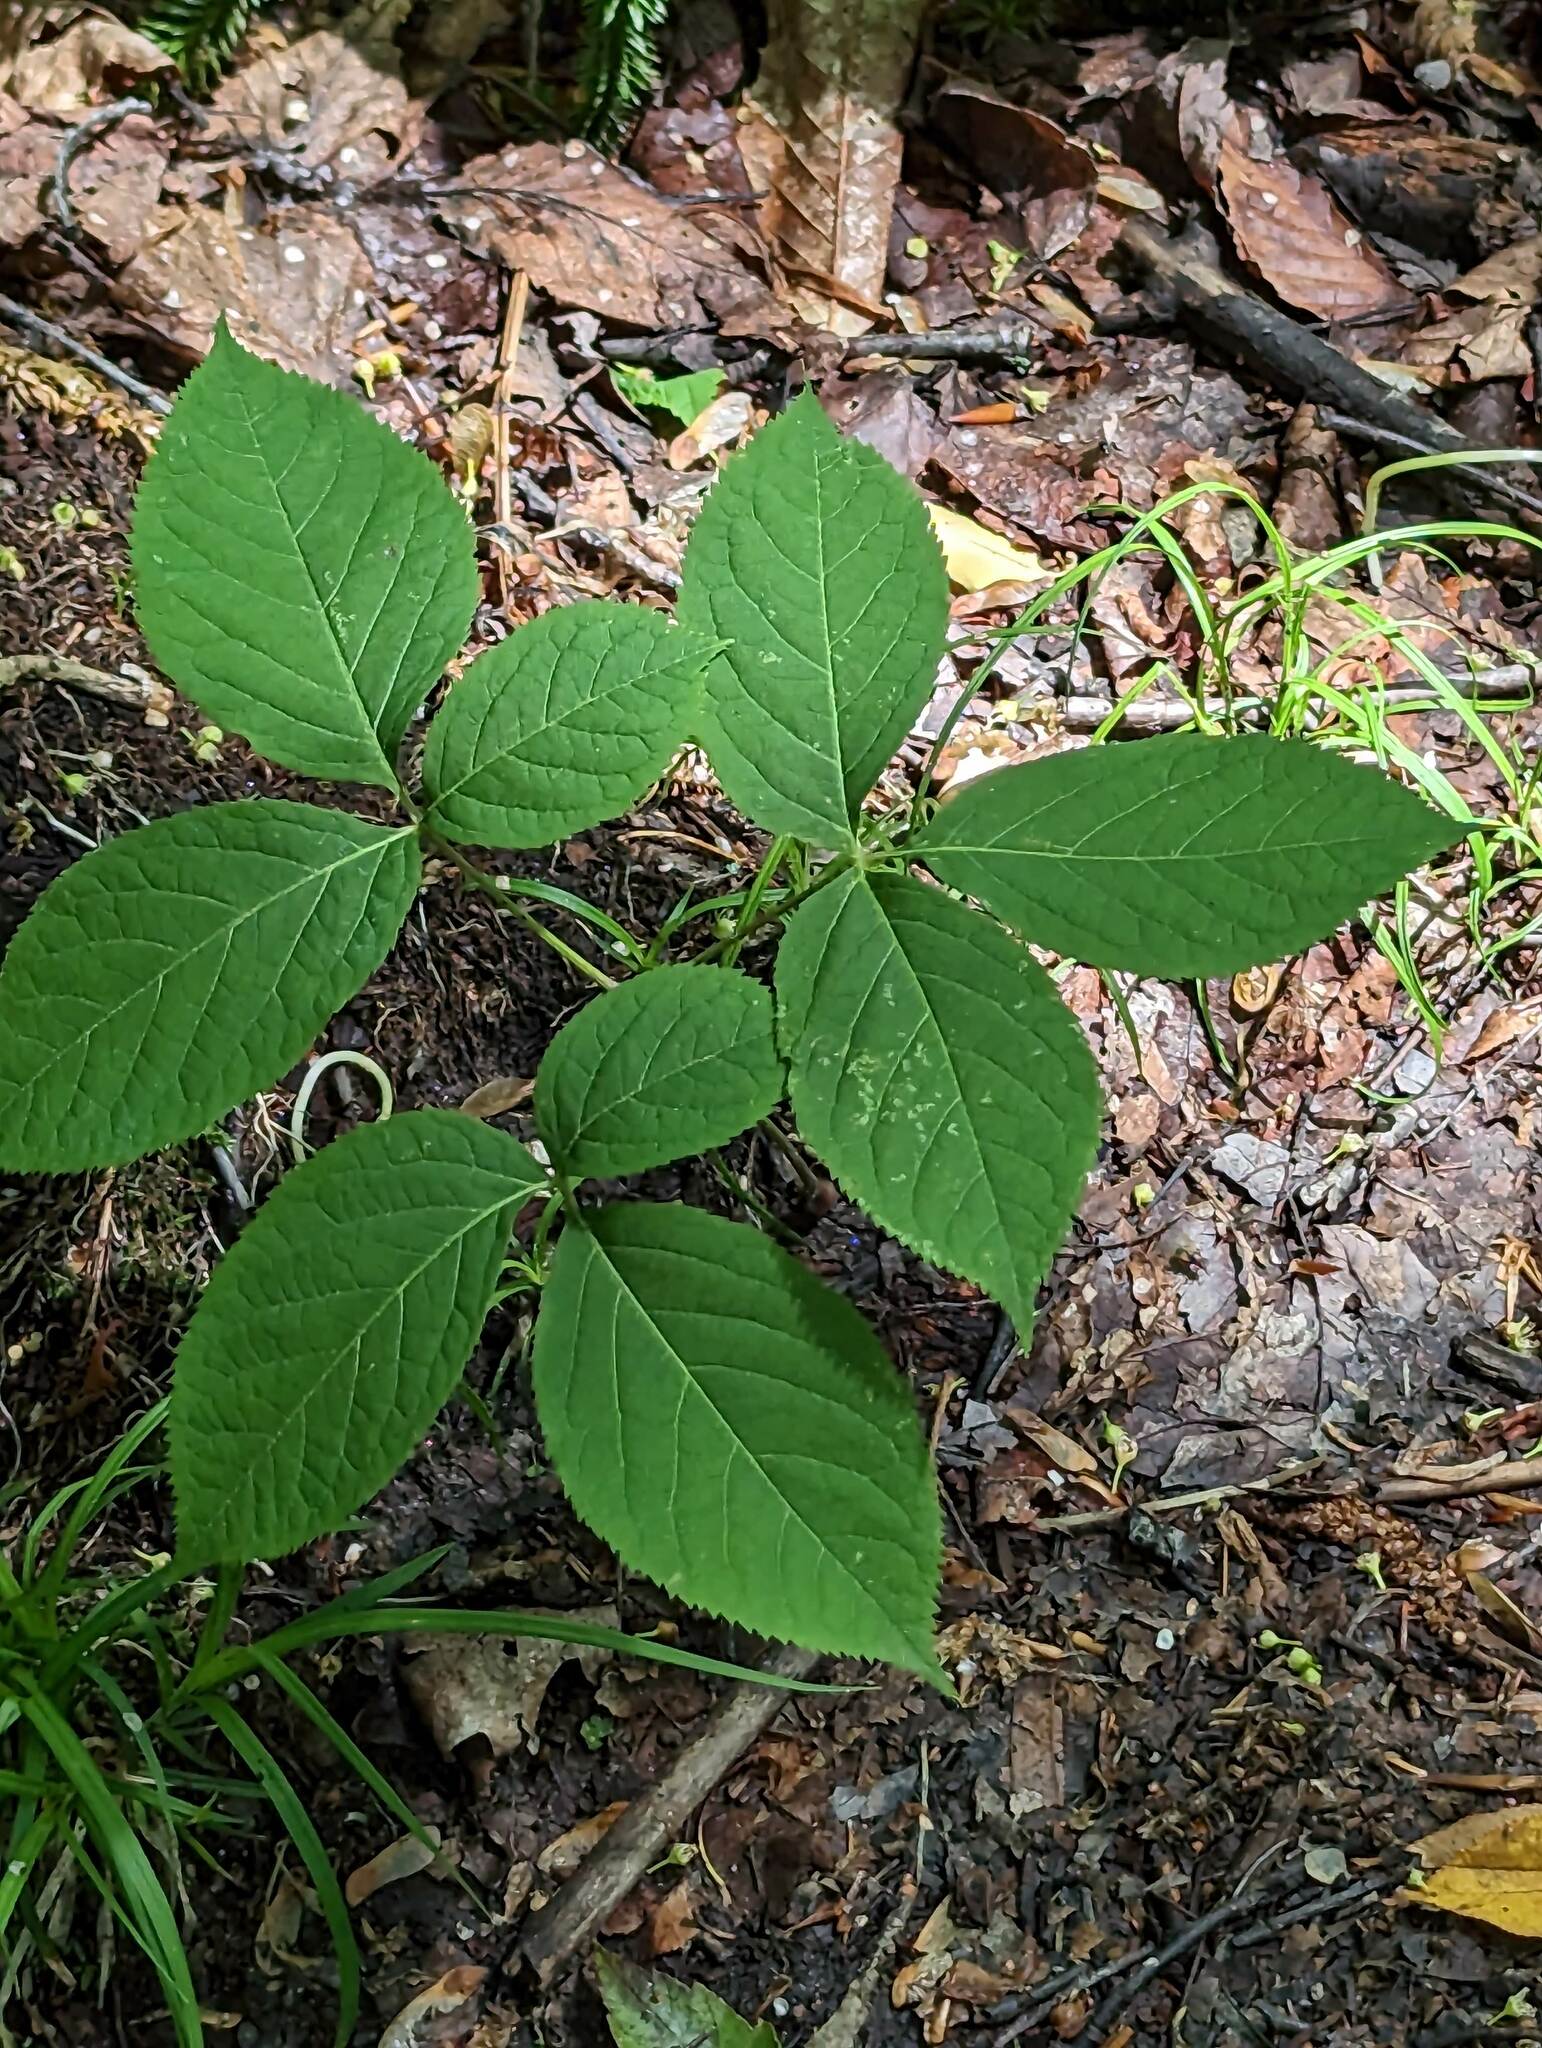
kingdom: Plantae
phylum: Tracheophyta
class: Magnoliopsida
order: Apiales
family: Araliaceae
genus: Aralia
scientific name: Aralia nudicaulis
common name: Wild sarsaparilla
